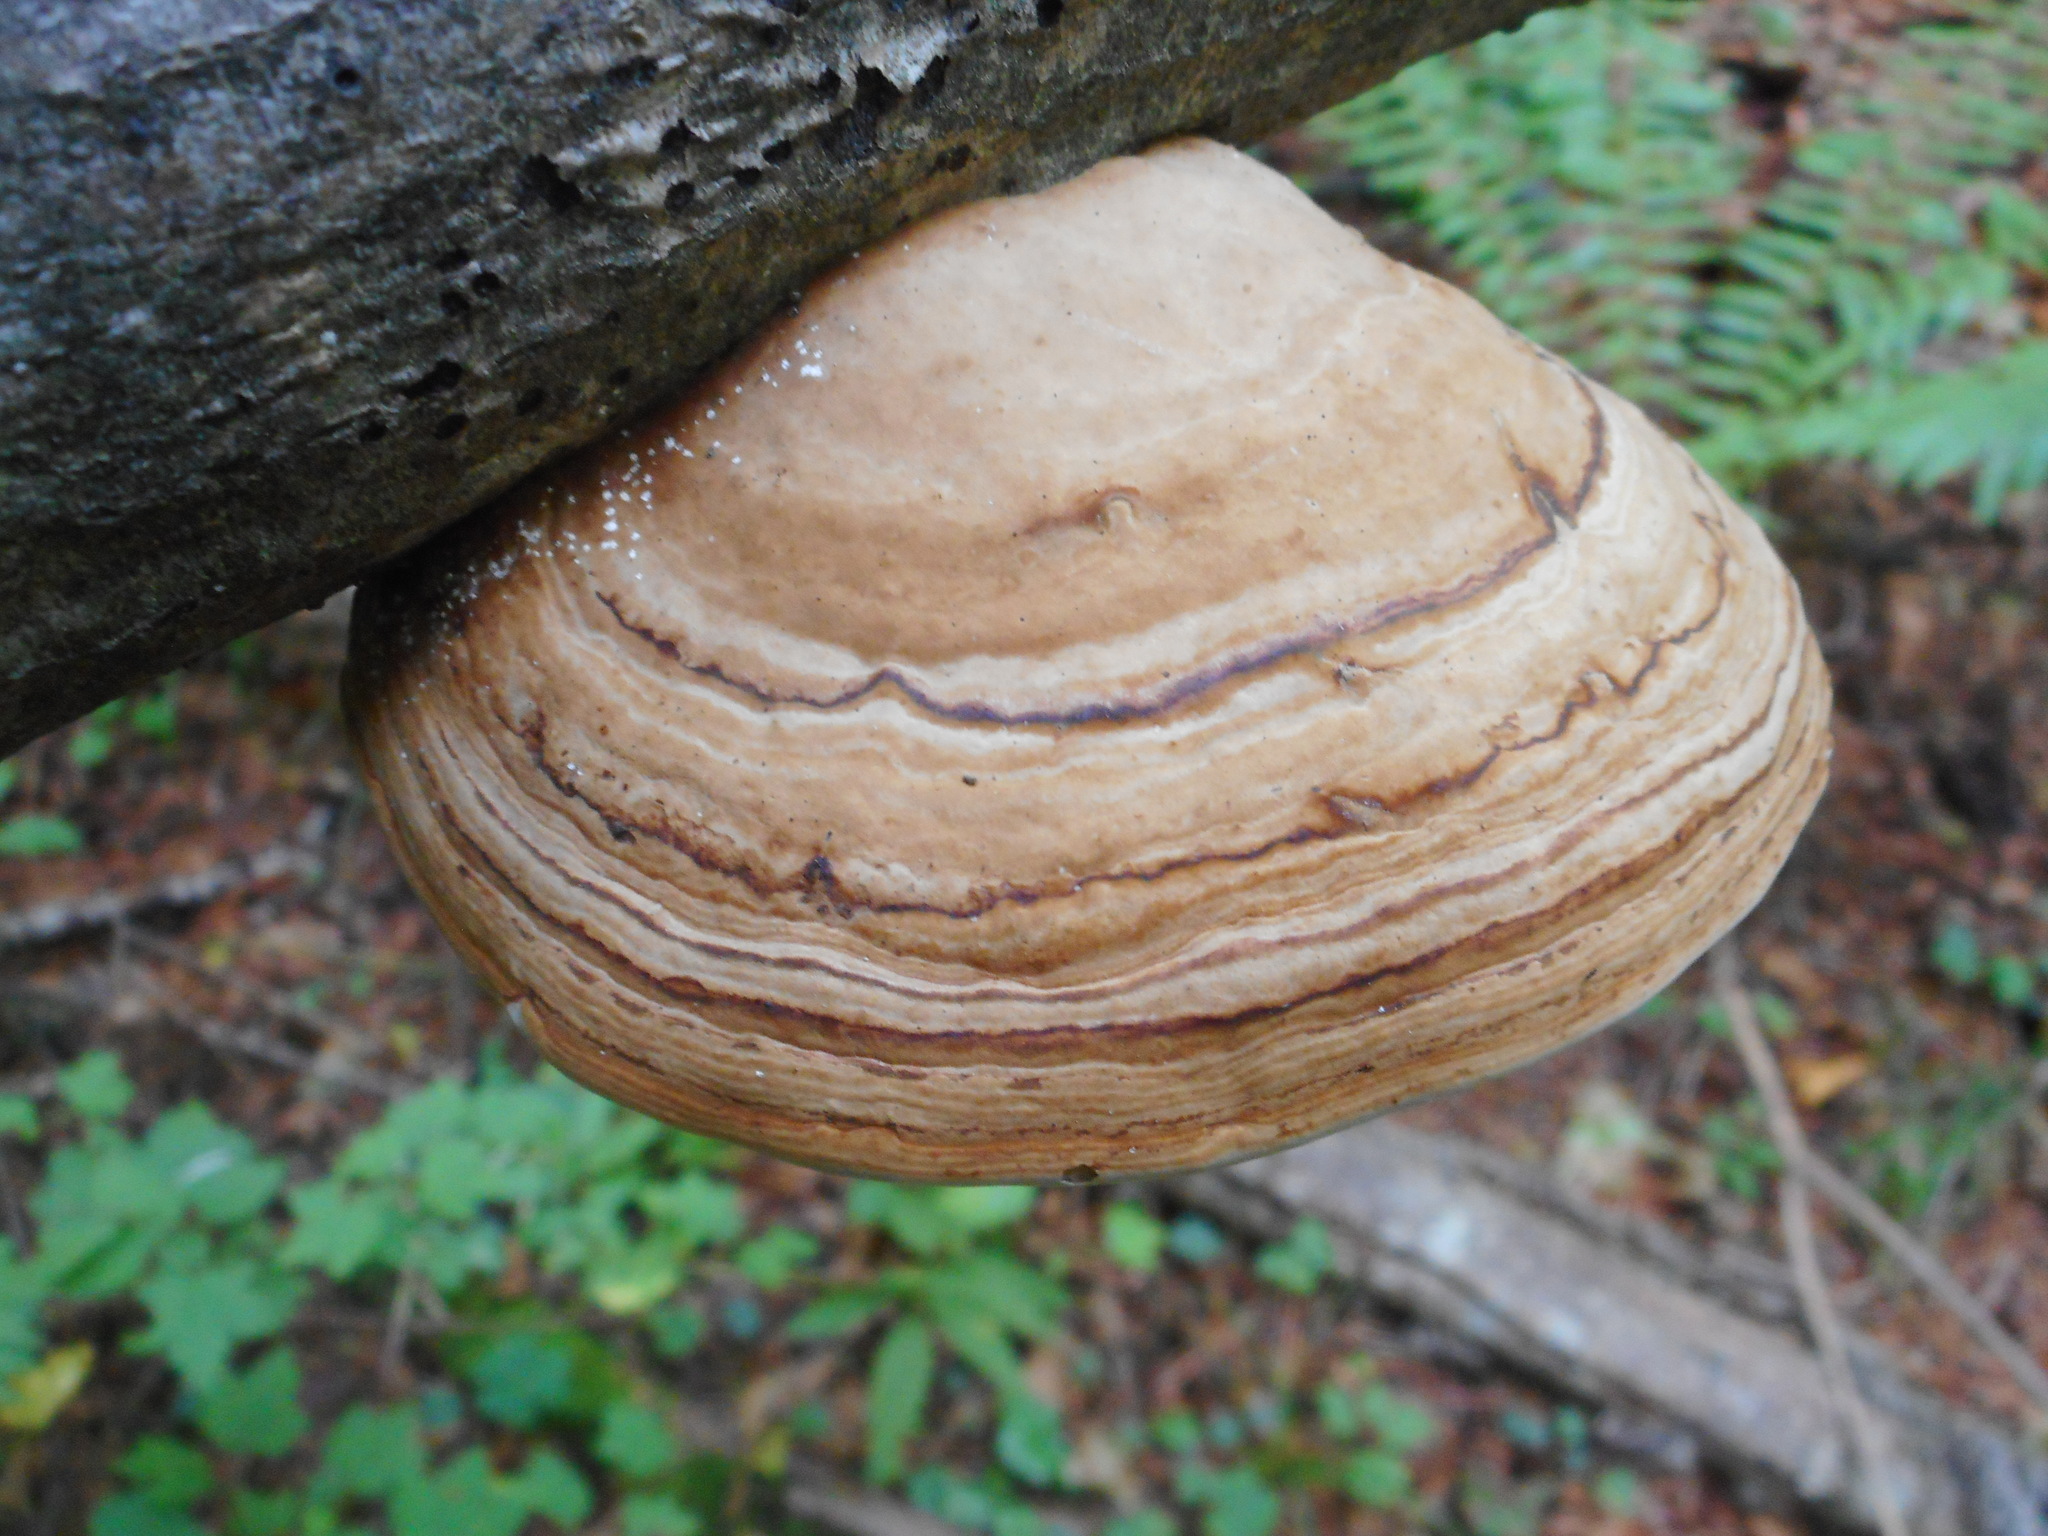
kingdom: Fungi
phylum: Basidiomycota
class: Agaricomycetes
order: Polyporales
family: Polyporaceae
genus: Fomes
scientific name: Fomes fomentarius
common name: Hoof fungus
